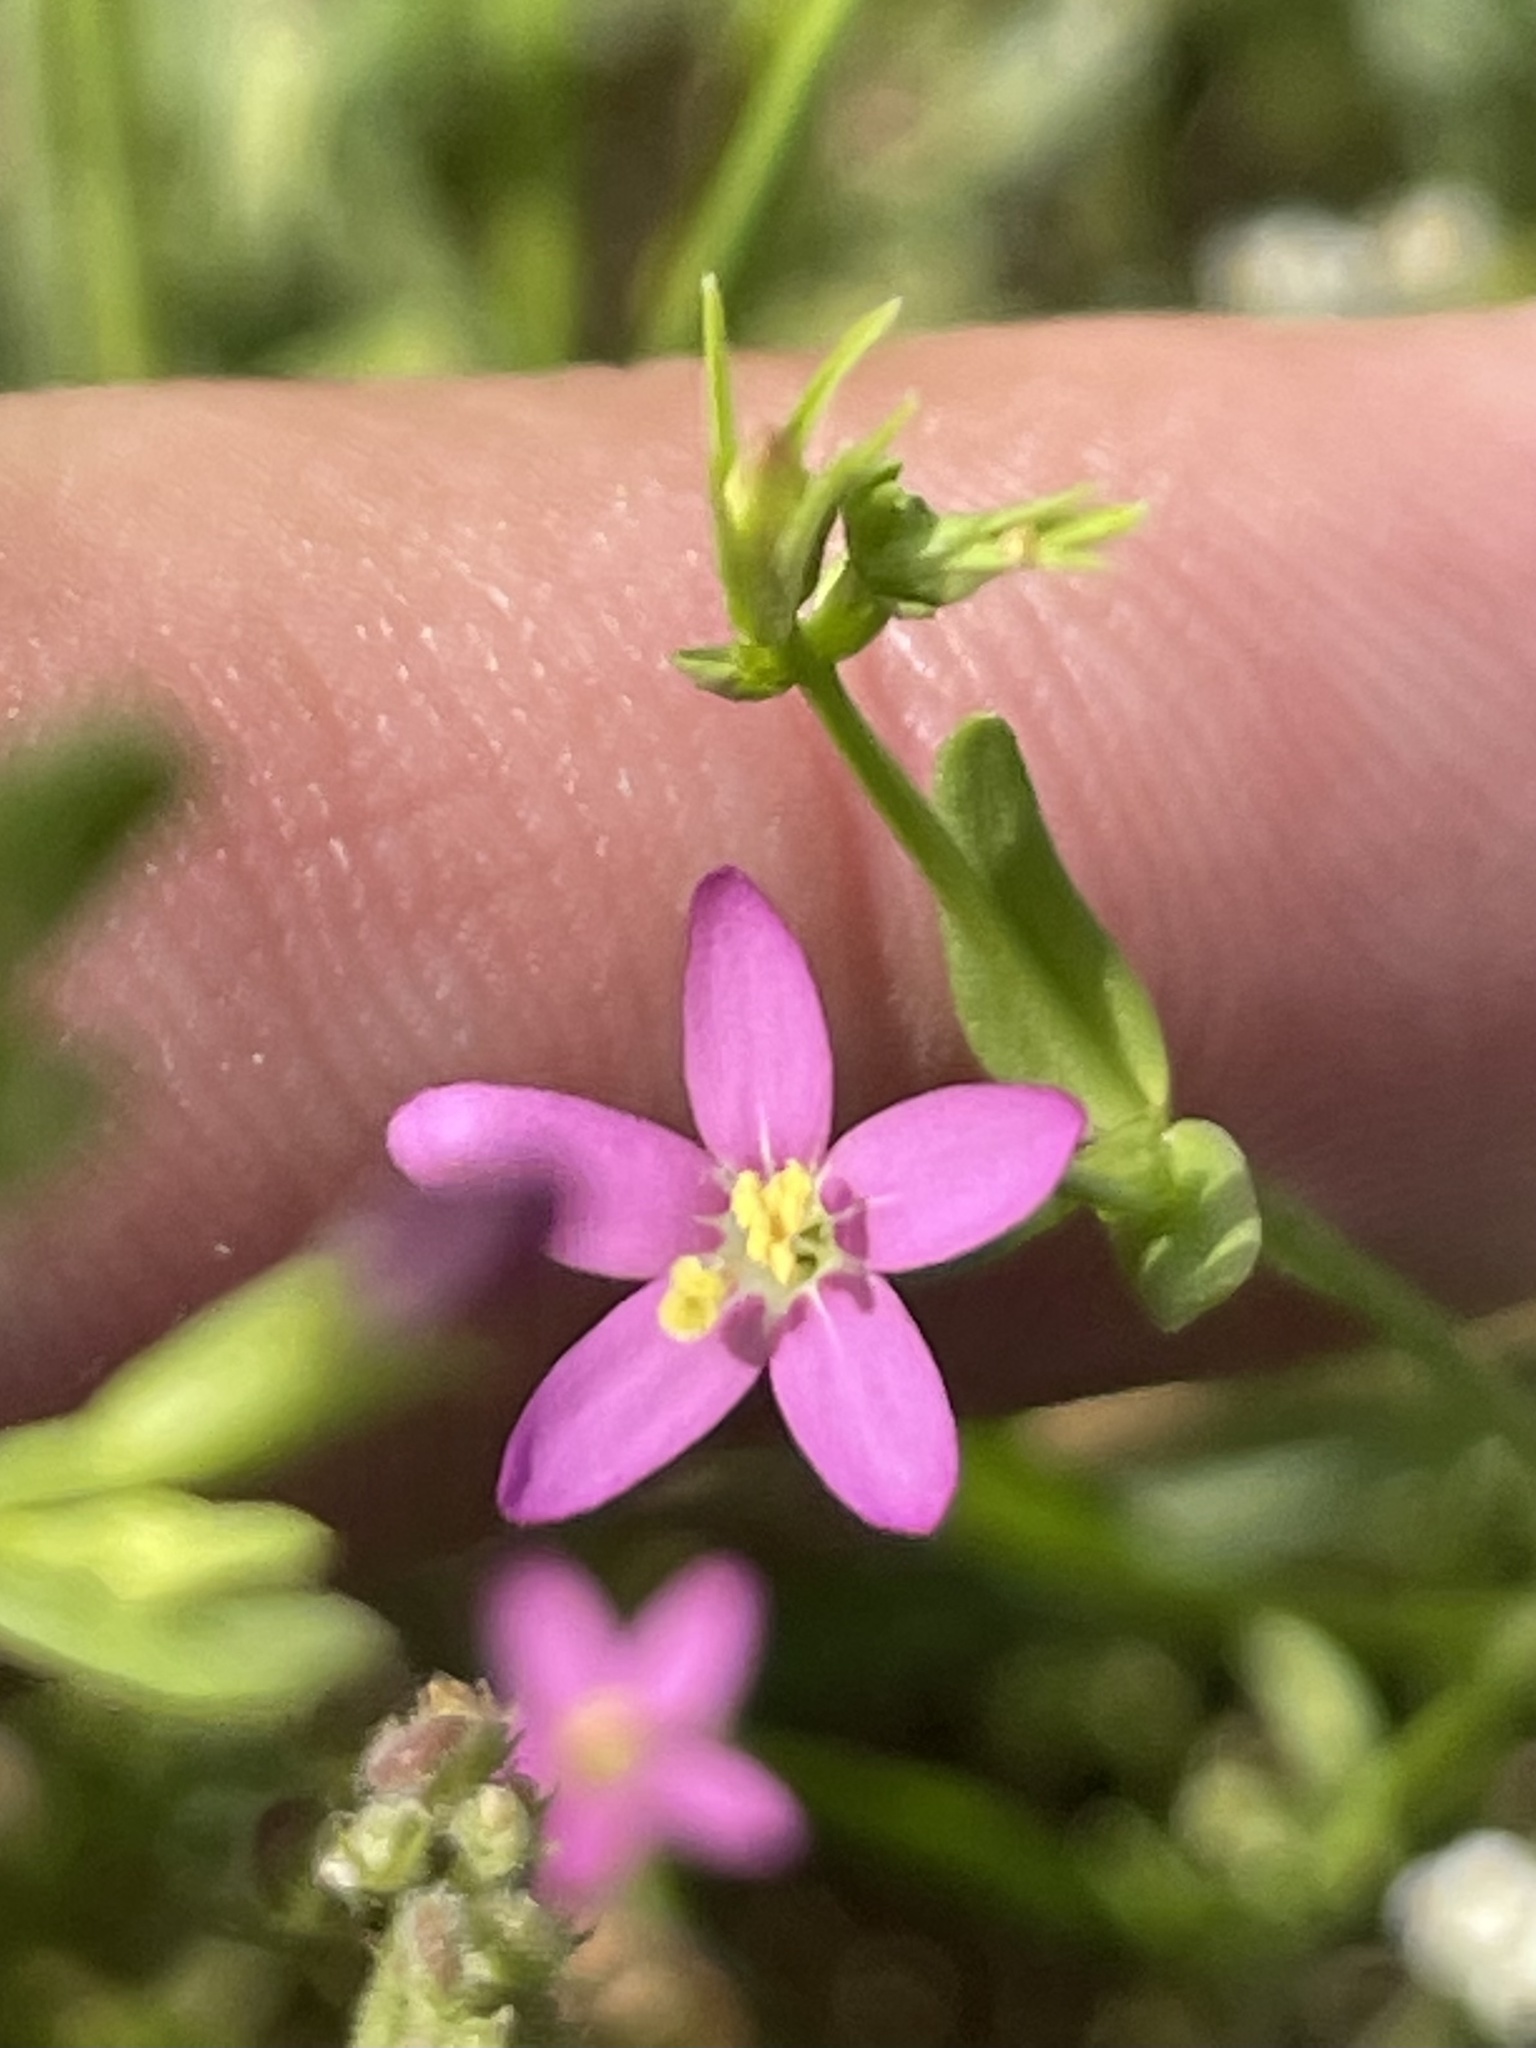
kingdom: Plantae
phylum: Tracheophyta
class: Magnoliopsida
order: Gentianales
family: Gentianaceae
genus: Centaurium
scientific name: Centaurium pulchellum
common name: Lesser centaury
